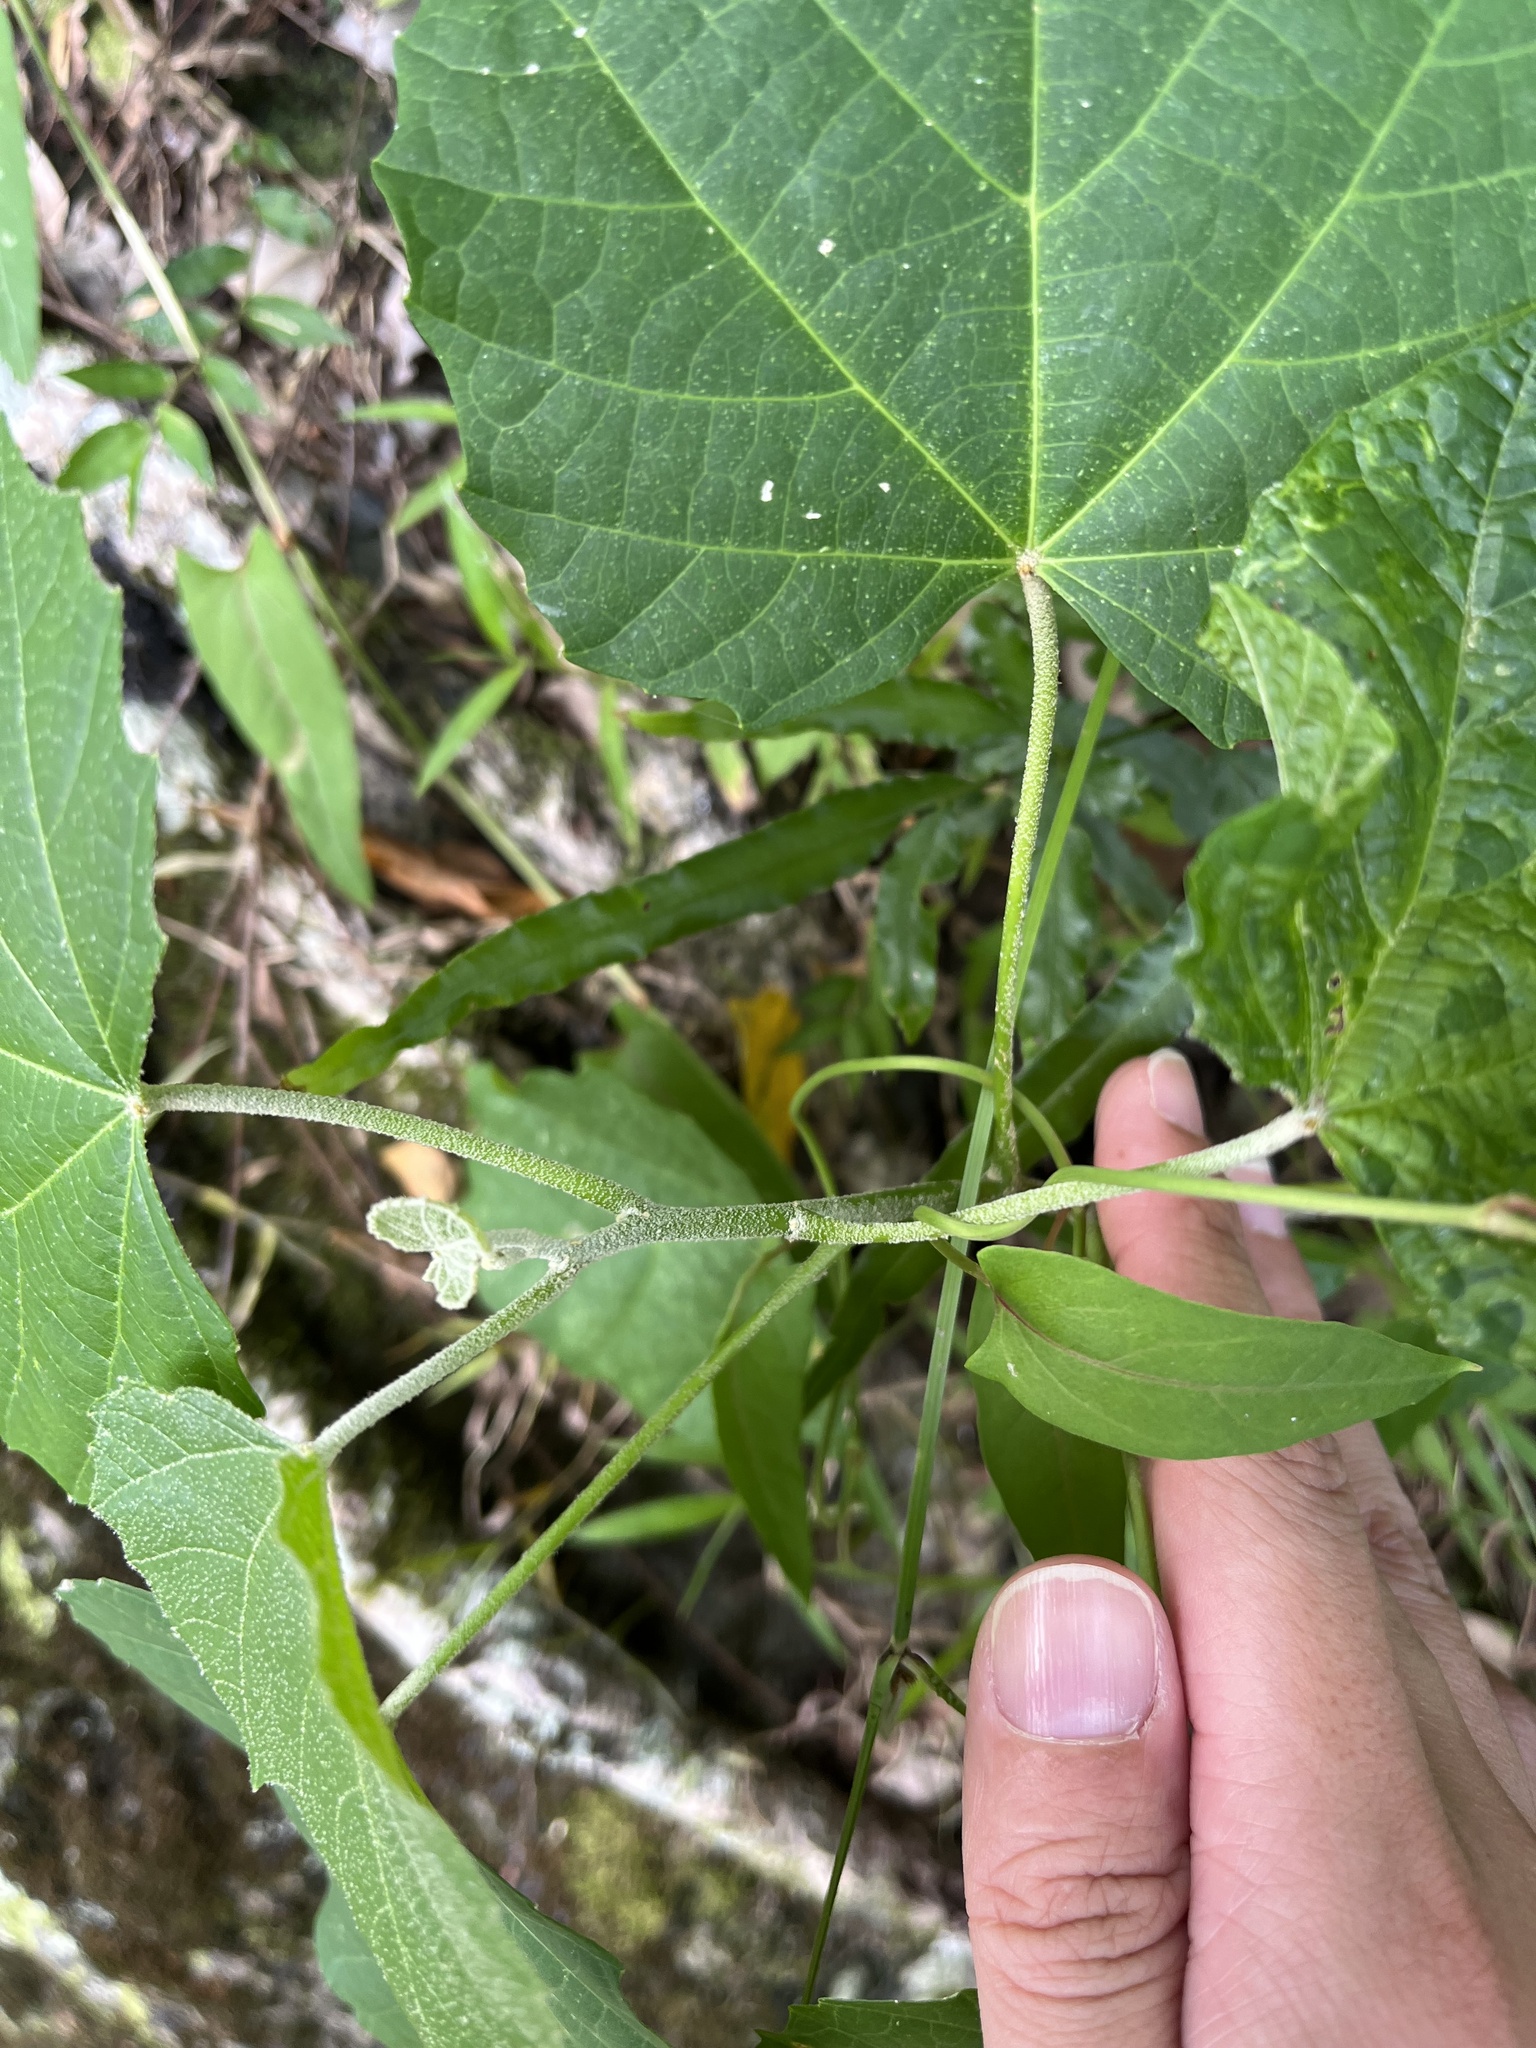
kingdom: Plantae
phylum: Tracheophyta
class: Magnoliopsida
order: Malpighiales
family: Euphorbiaceae
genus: Melanolepis
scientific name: Melanolepis multiglandulosa
